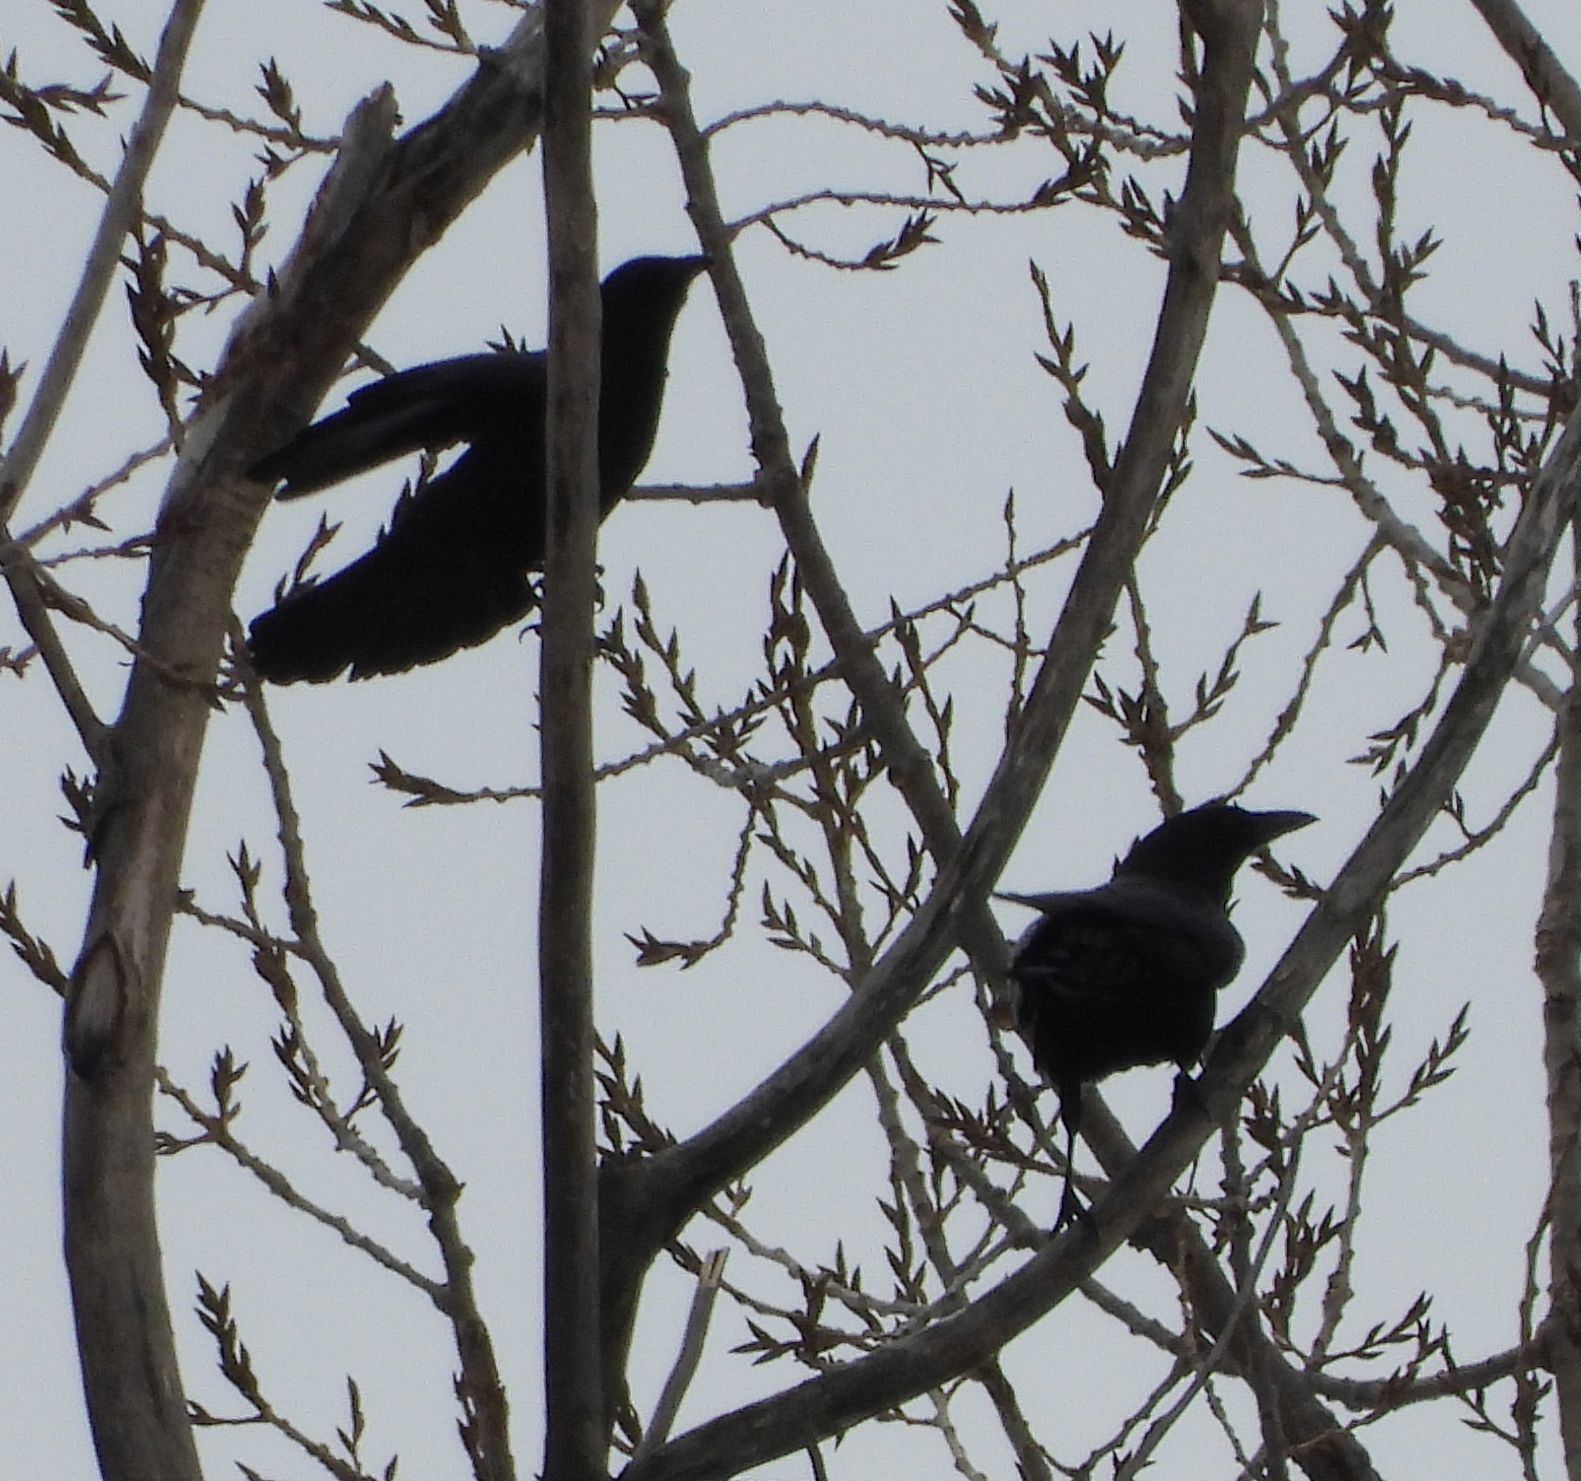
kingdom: Animalia
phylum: Chordata
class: Aves
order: Passeriformes
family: Corvidae
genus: Corvus
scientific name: Corvus brachyrhynchos
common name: American crow
